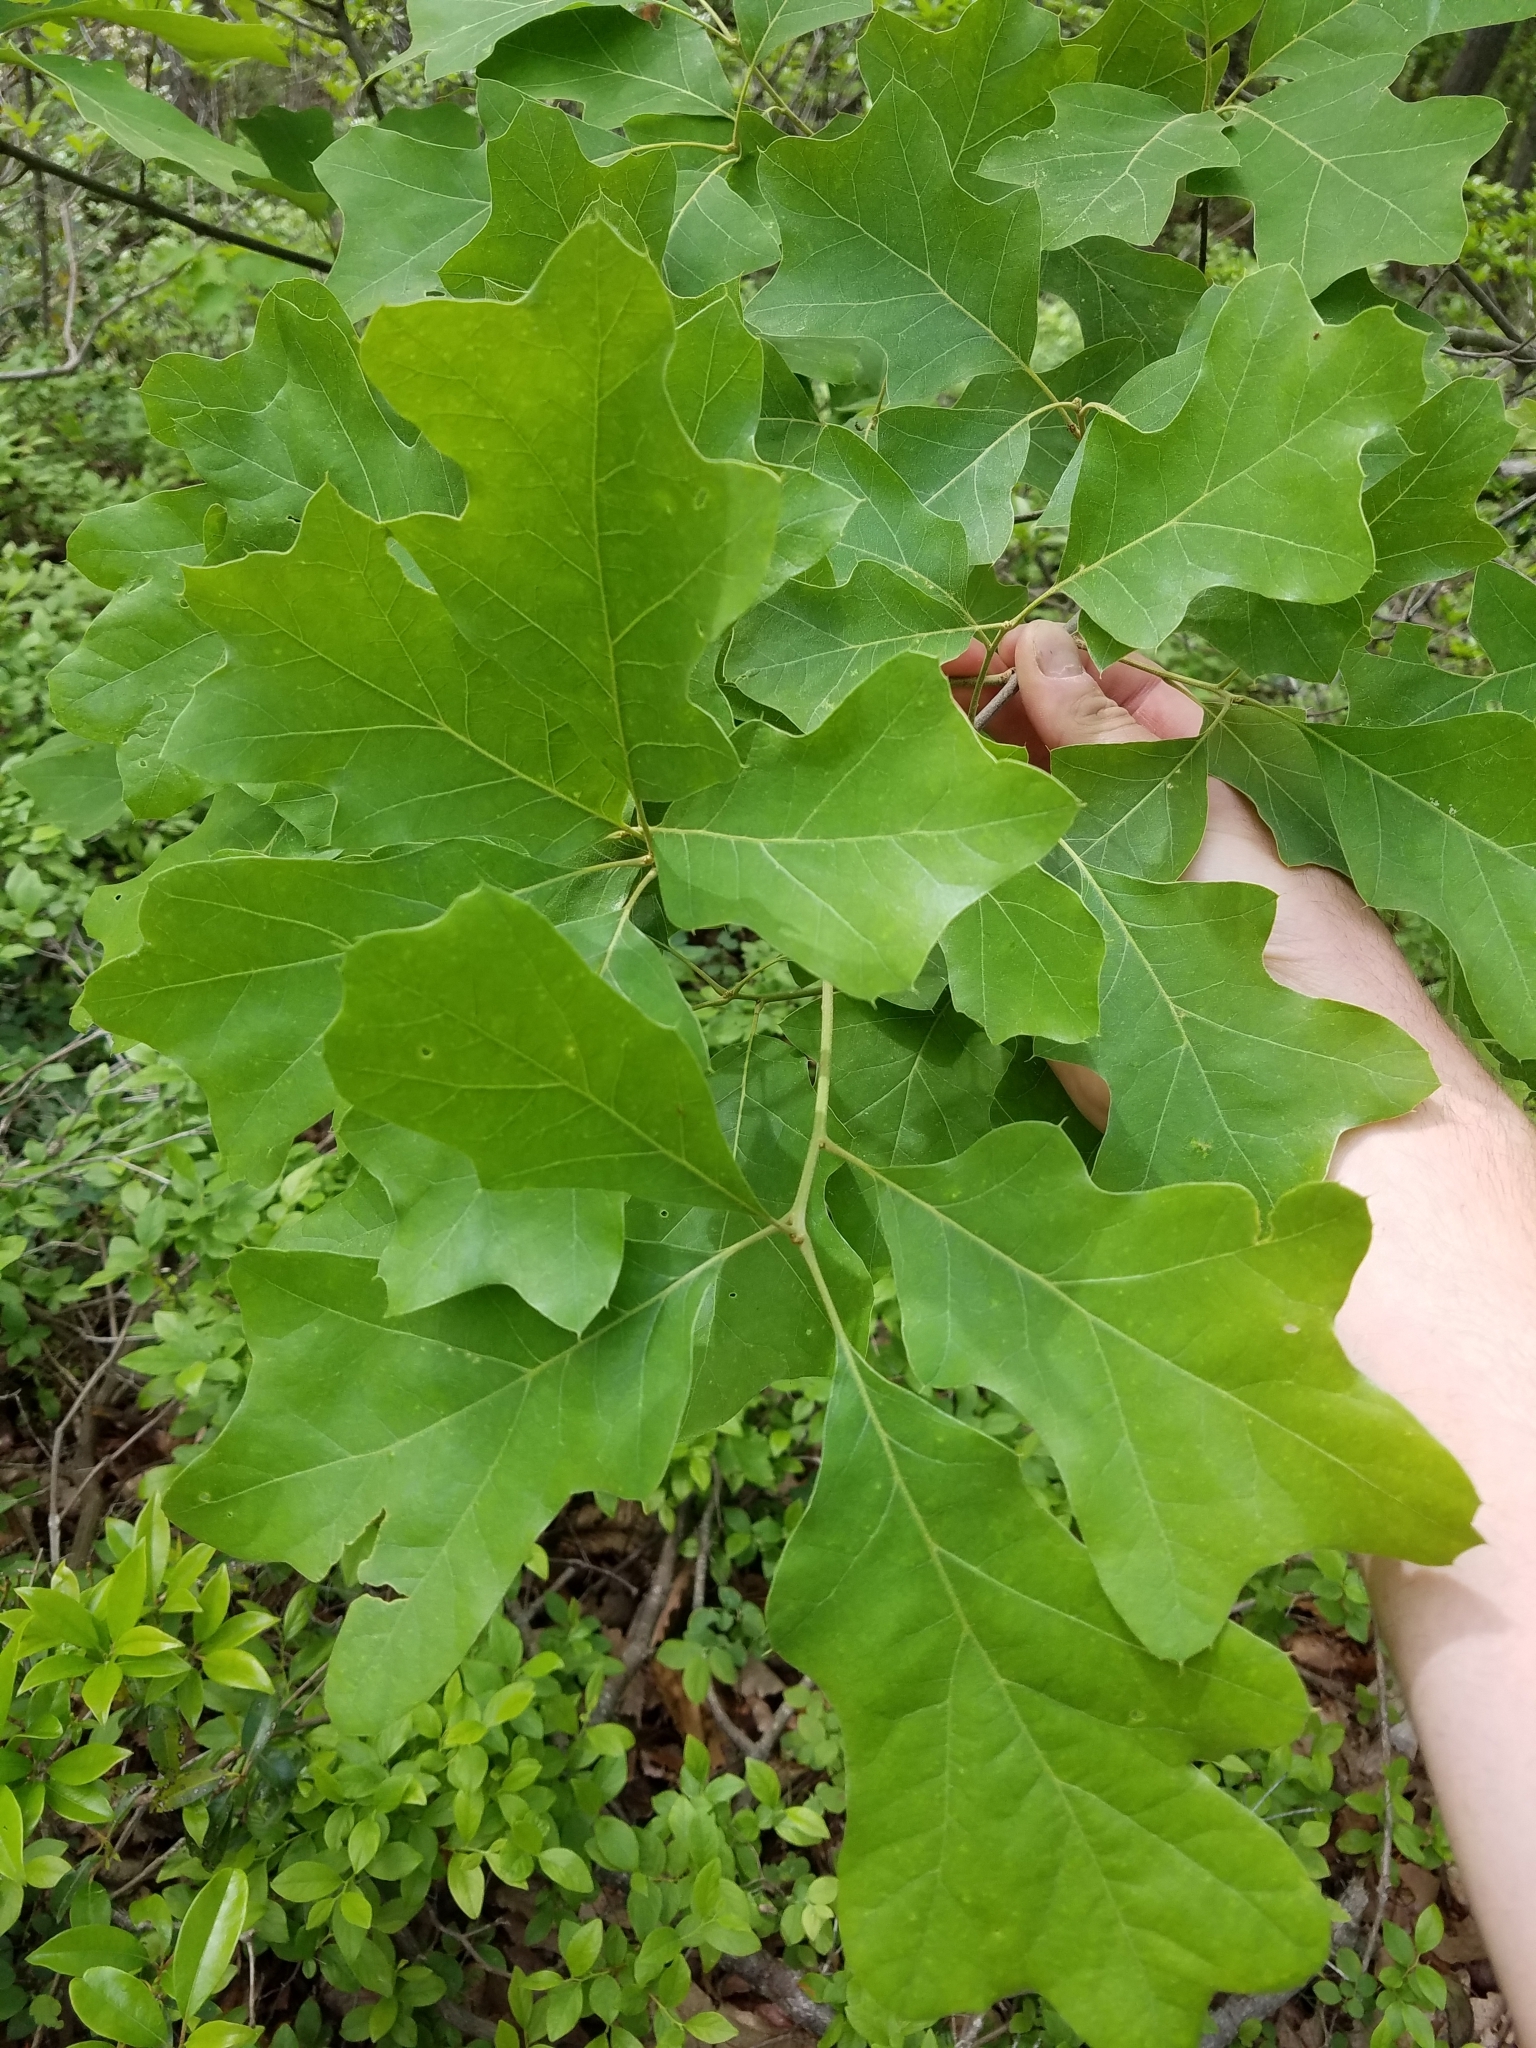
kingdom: Plantae
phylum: Tracheophyta
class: Magnoliopsida
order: Fagales
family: Fagaceae
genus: Quercus
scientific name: Quercus ilicifolia
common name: Bear oak
